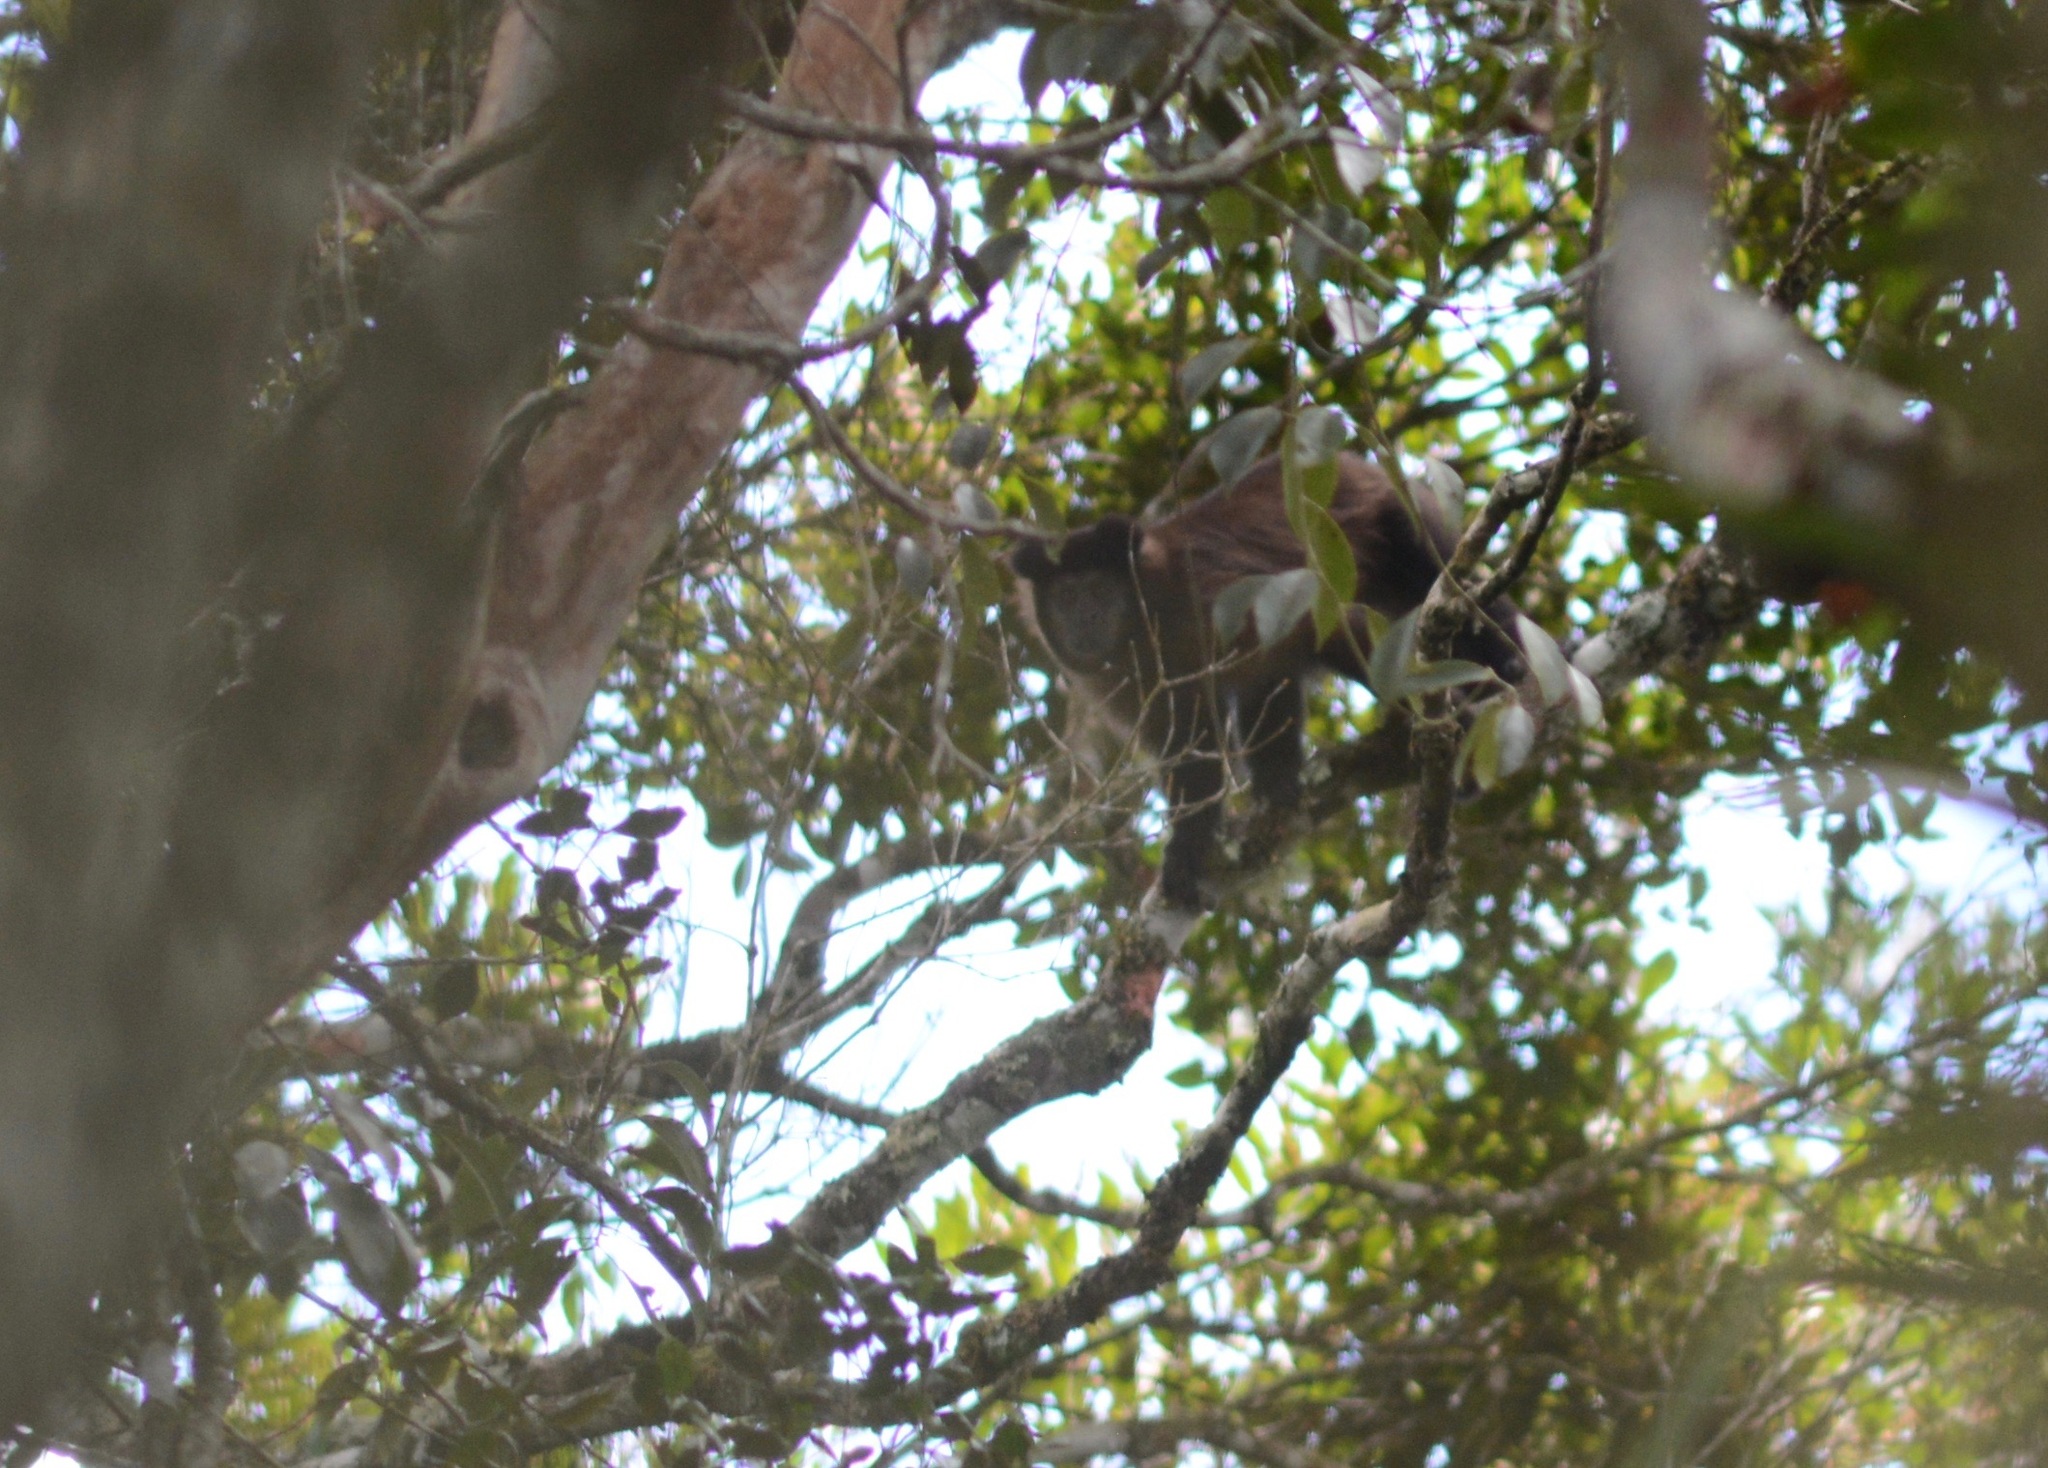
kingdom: Animalia
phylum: Chordata
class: Mammalia
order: Primates
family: Cebidae
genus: Sapajus
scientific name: Sapajus nigritus
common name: Black capuchin
